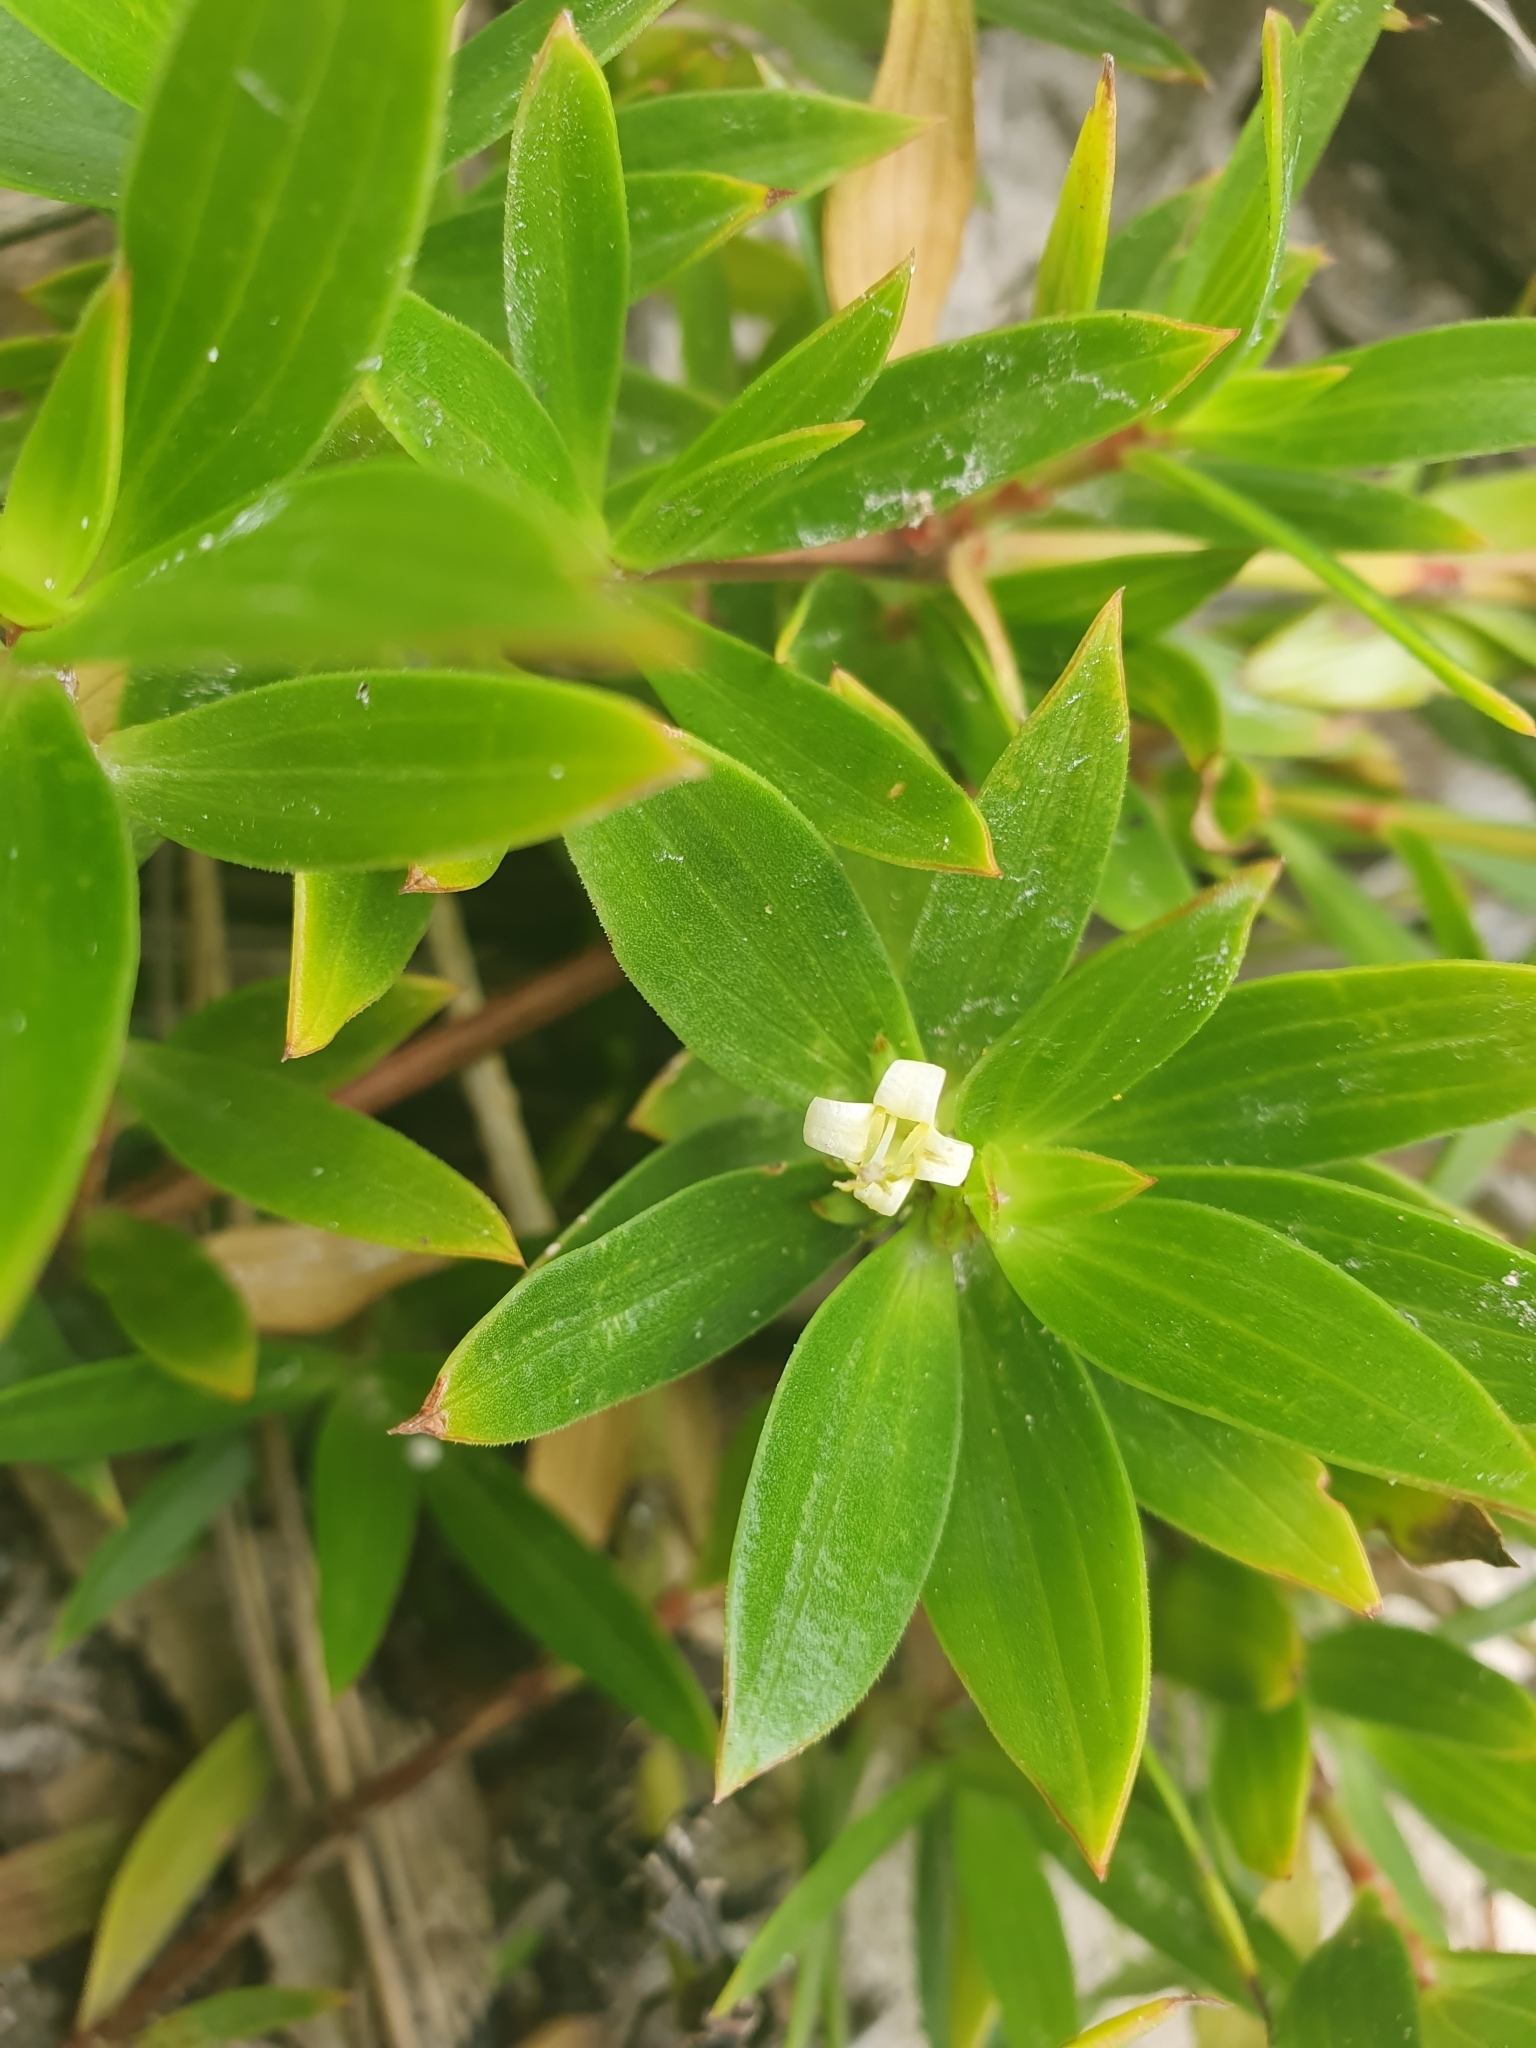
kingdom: Plantae
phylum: Tracheophyta
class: Magnoliopsida
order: Gentianales
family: Rubiaceae
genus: Ernodea
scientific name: Ernodea littoralis
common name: Beach creeper
